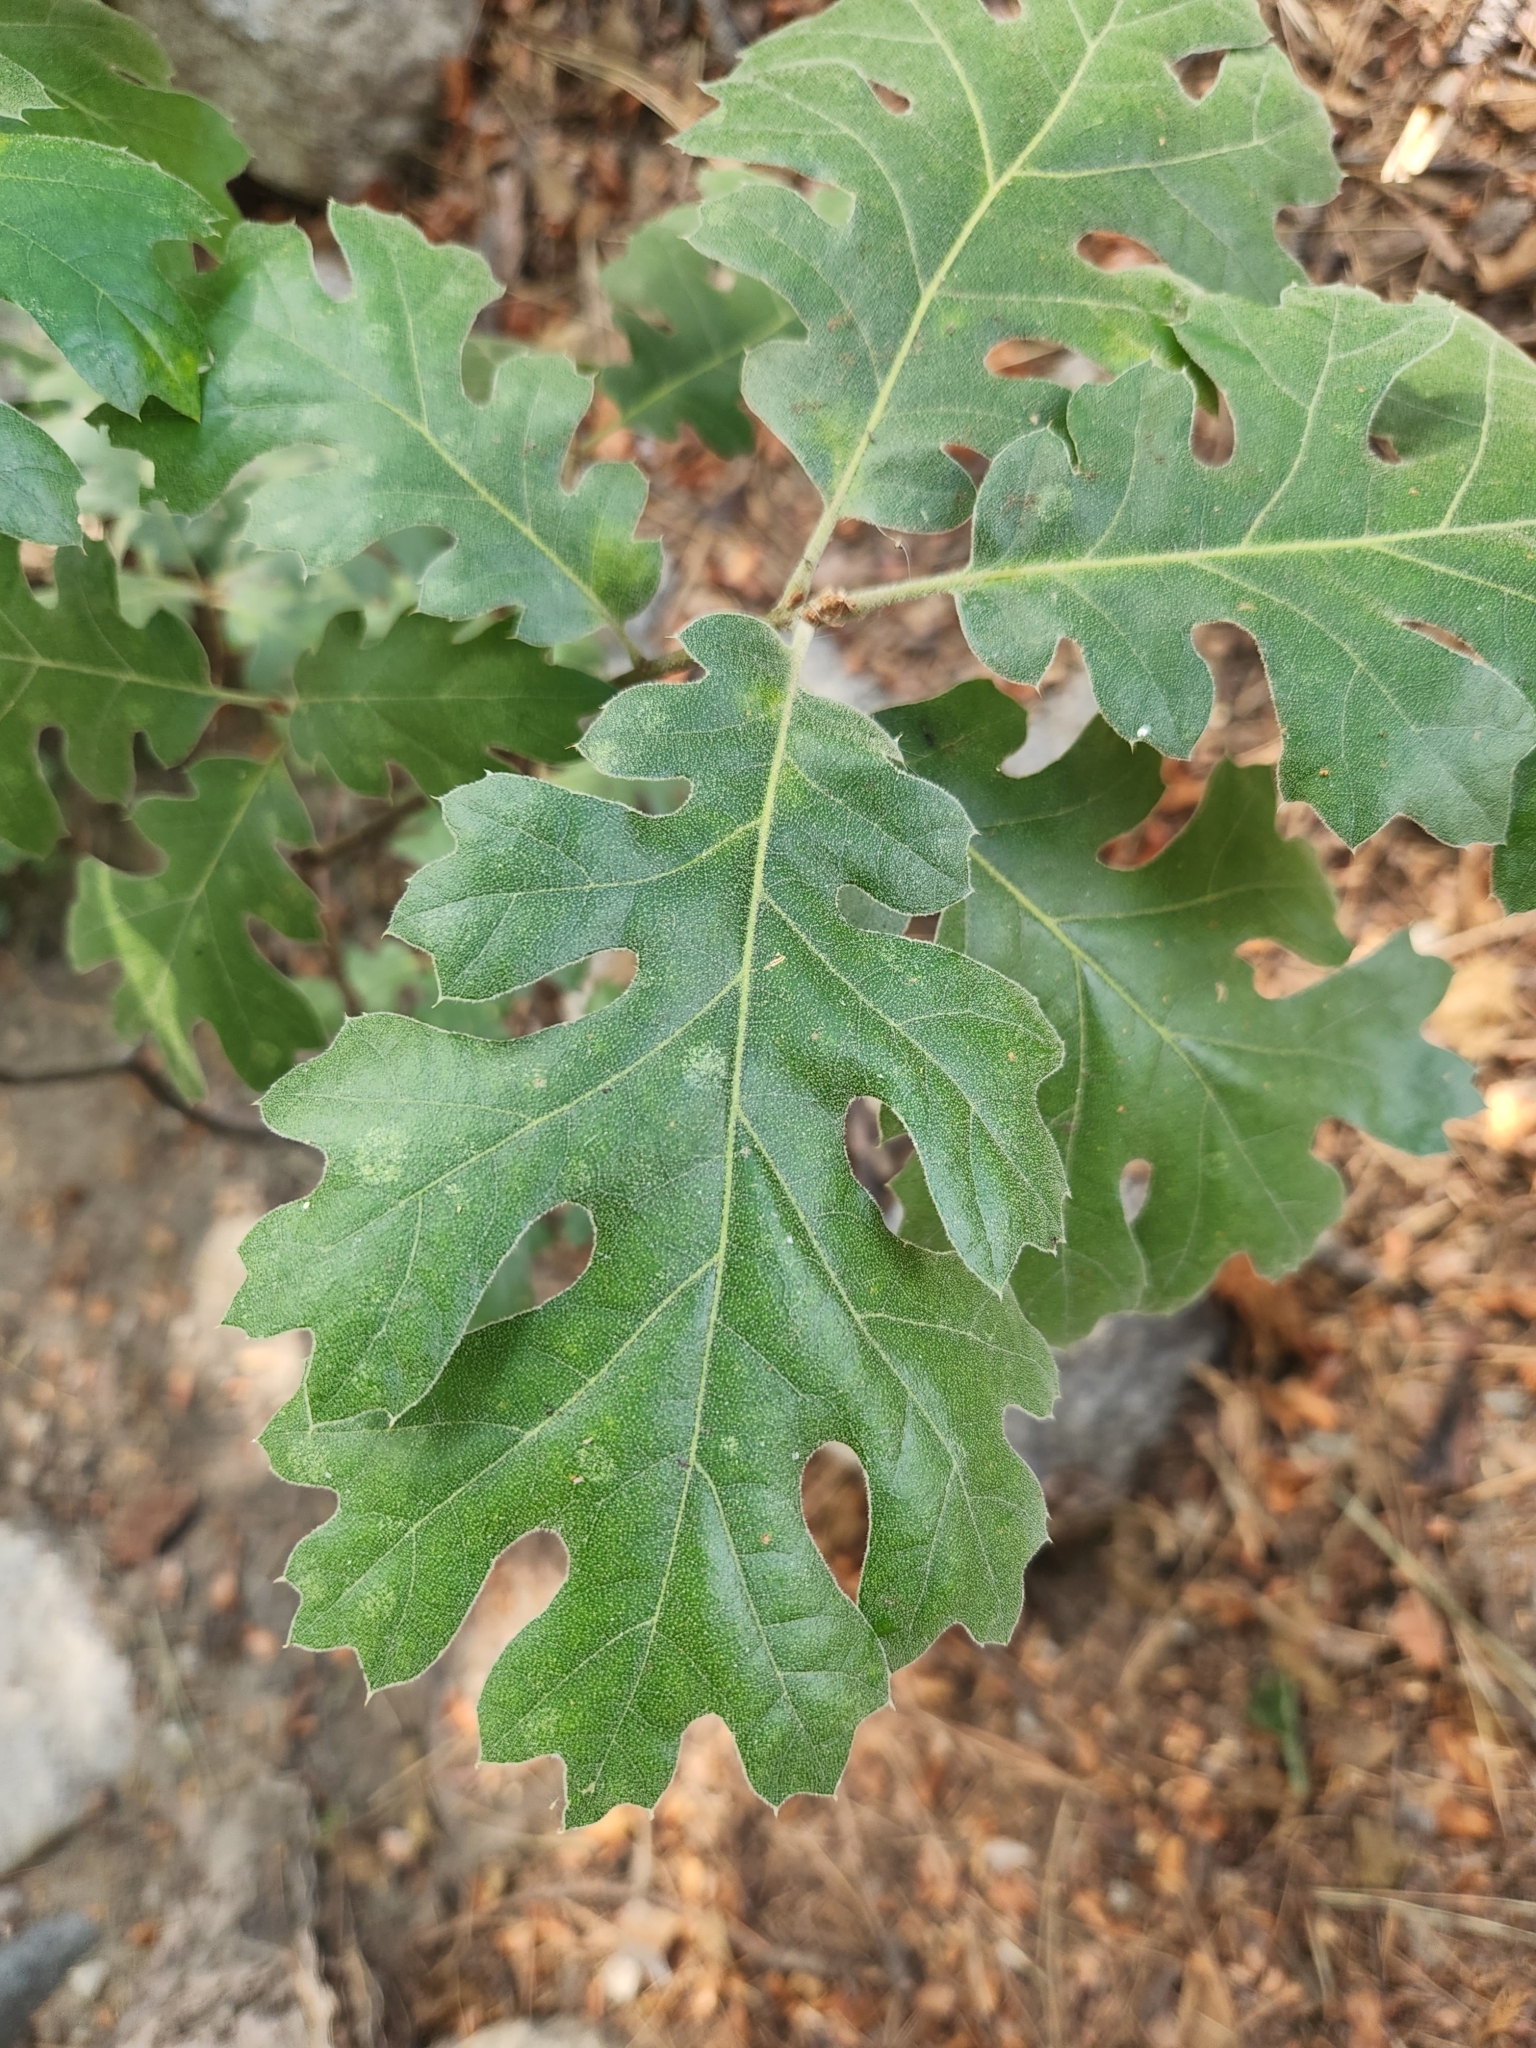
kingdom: Plantae
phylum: Tracheophyta
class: Magnoliopsida
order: Fagales
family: Fagaceae
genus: Quercus
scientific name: Quercus kelloggii
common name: California black oak
